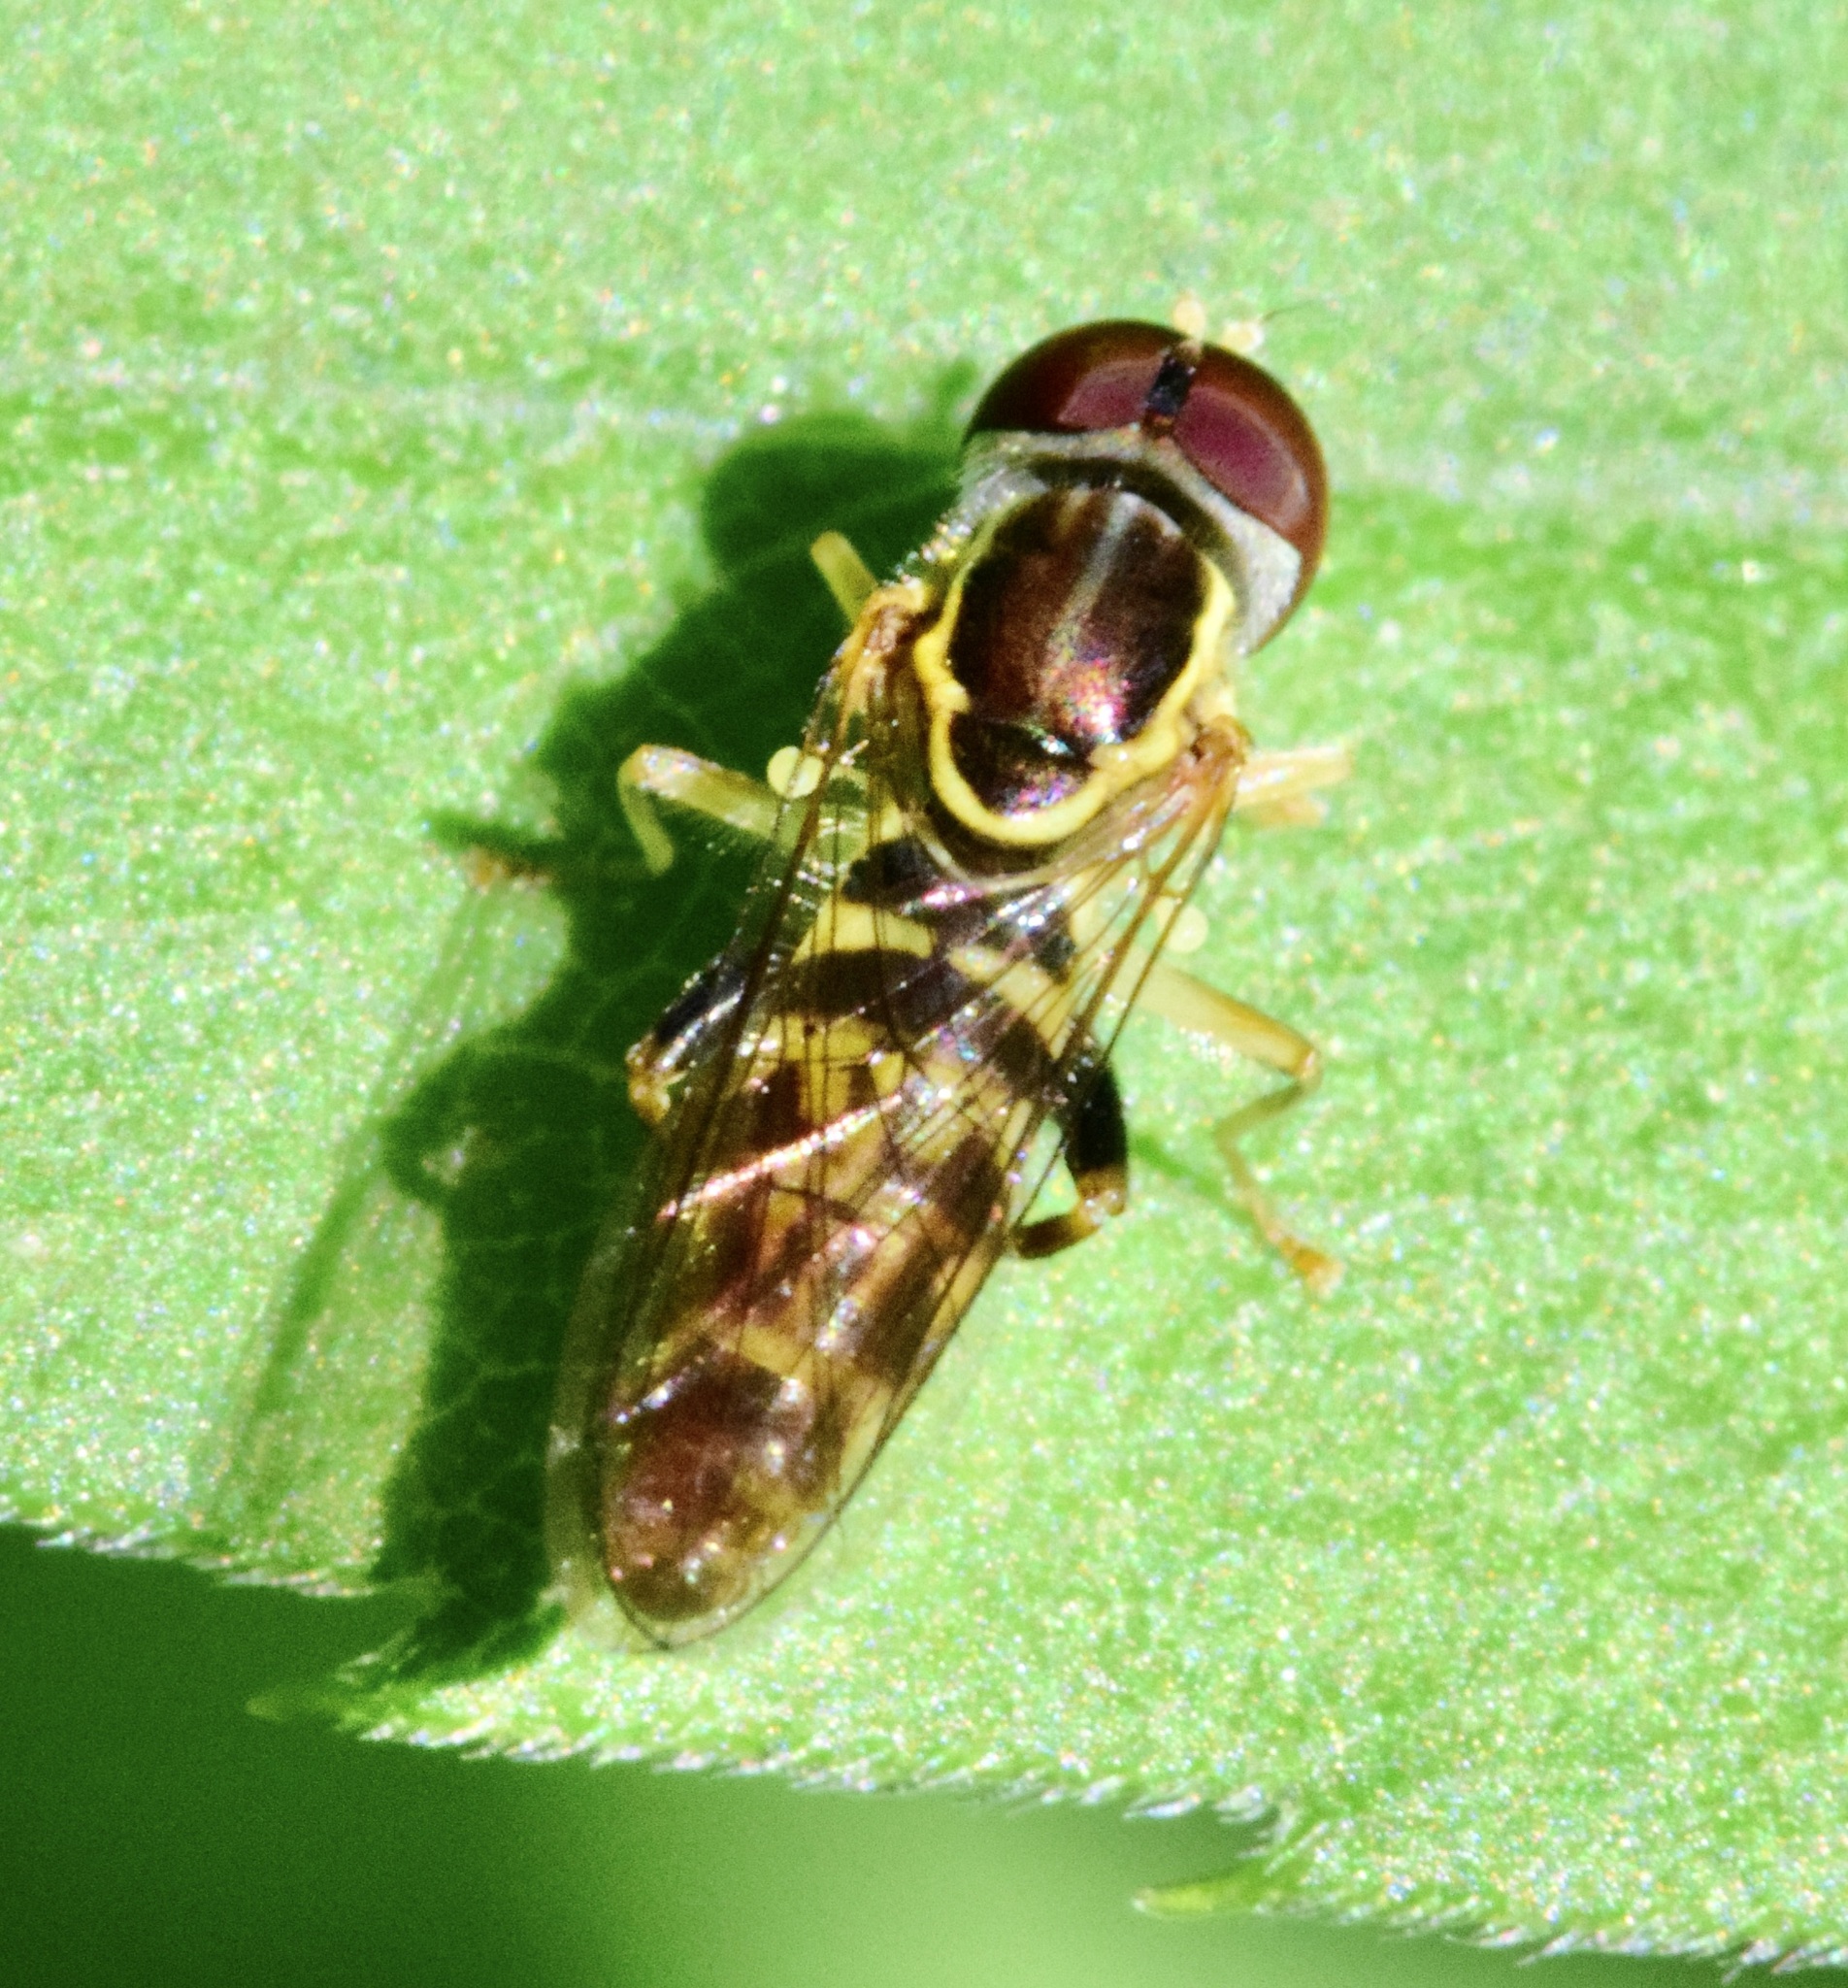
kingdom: Animalia
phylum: Arthropoda
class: Insecta
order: Diptera
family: Syrphidae
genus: Toxomerus
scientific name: Toxomerus geminatus
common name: Eastern calligrapher
